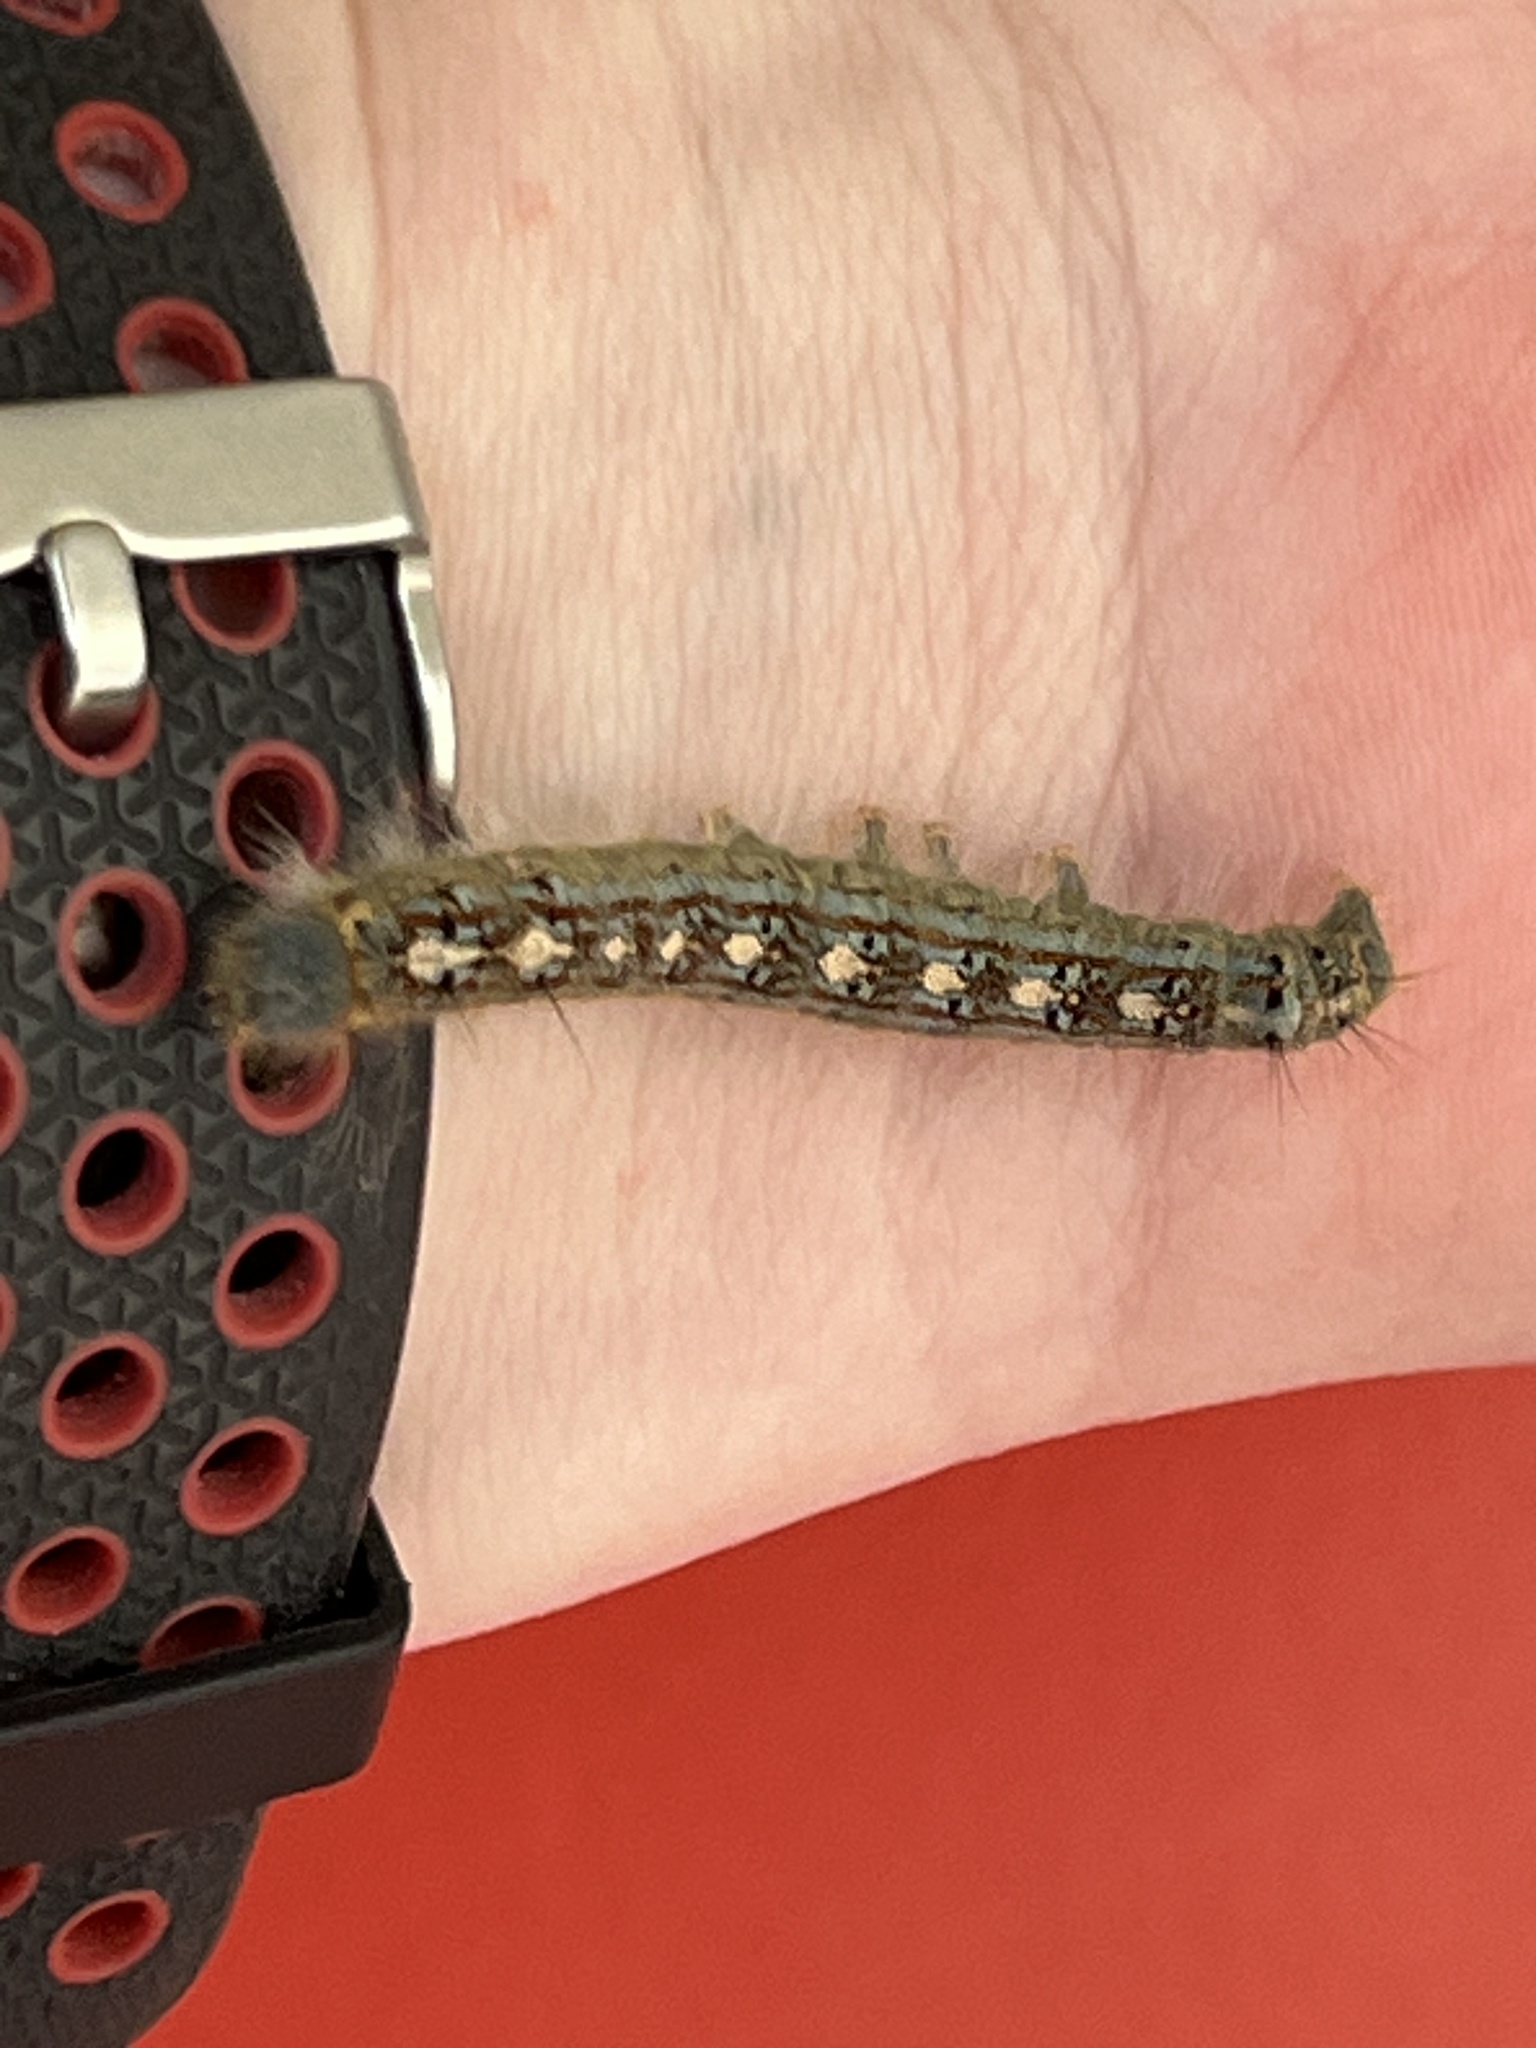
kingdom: Animalia
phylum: Arthropoda
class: Insecta
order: Lepidoptera
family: Lasiocampidae
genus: Malacosoma
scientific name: Malacosoma disstria
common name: Forest tent caterpillar
